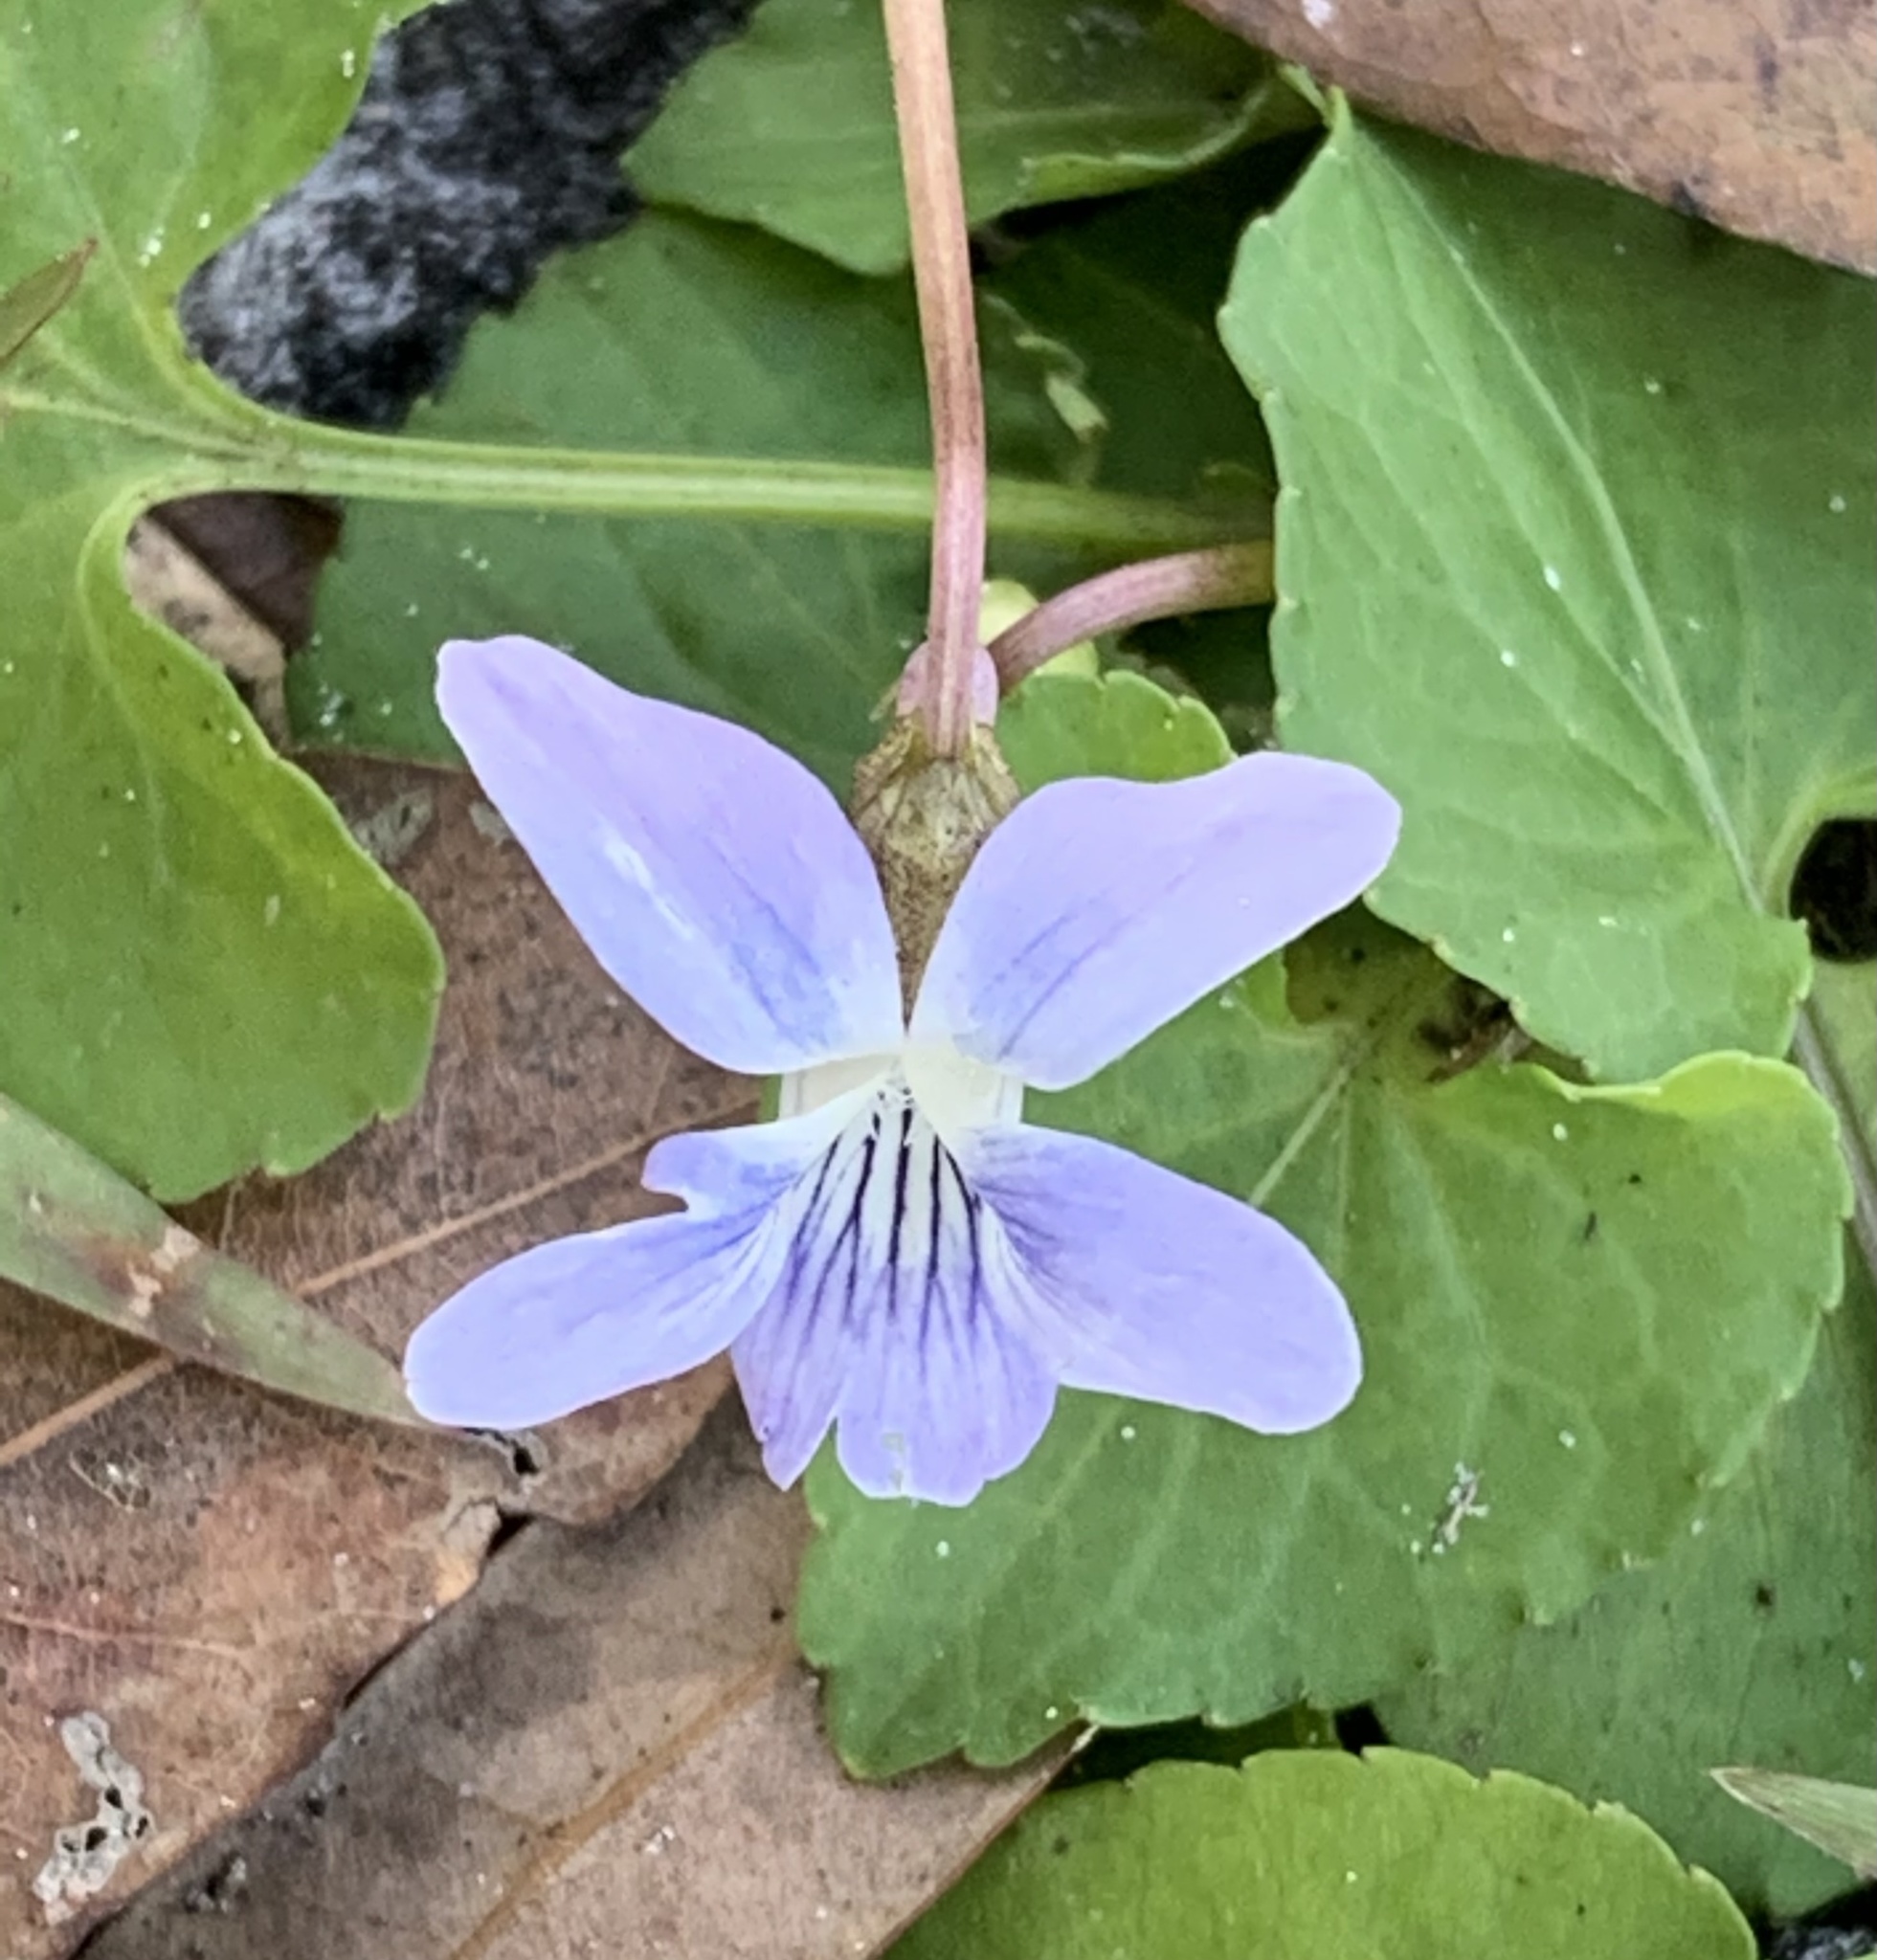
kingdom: Plantae
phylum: Tracheophyta
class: Magnoliopsida
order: Malpighiales
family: Violaceae
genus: Viola
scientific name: Viola floridana
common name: Florida violet
